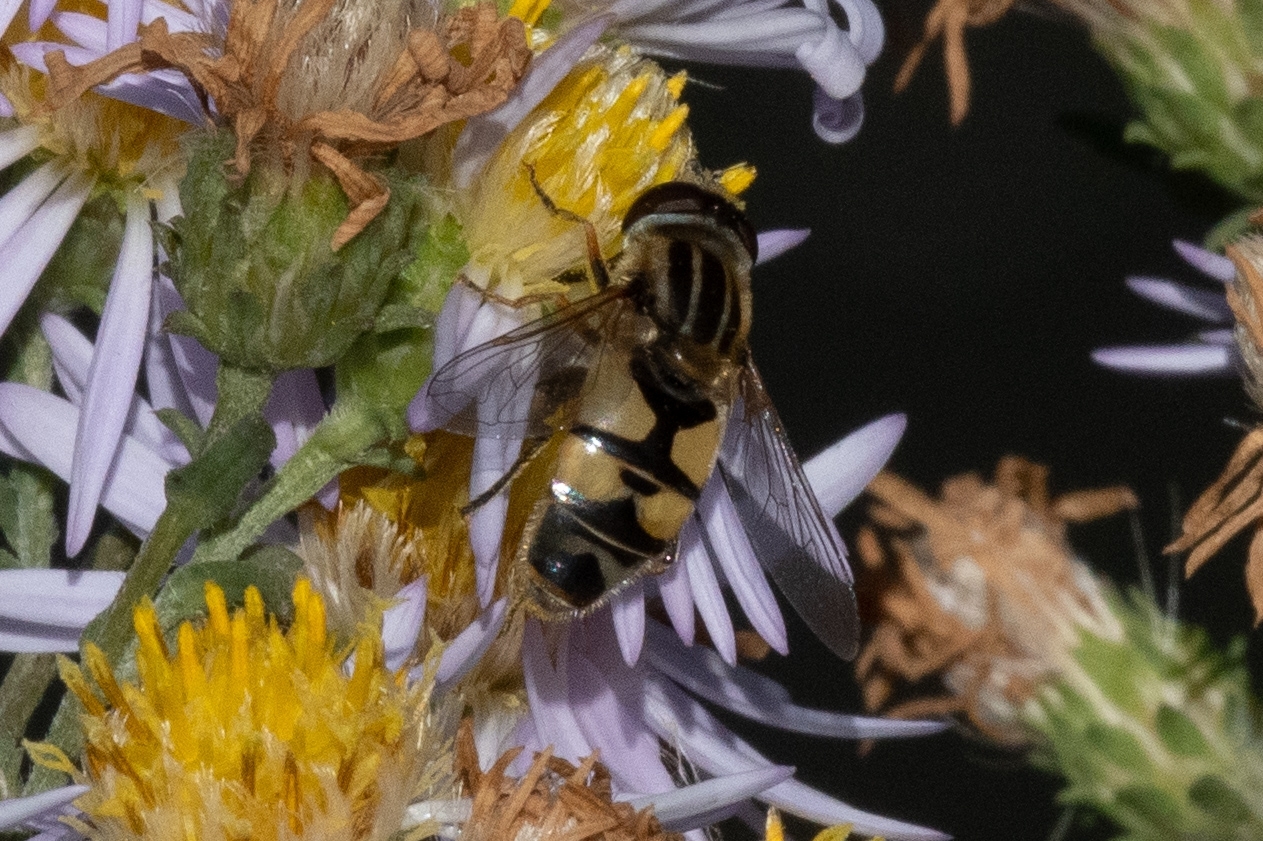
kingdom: Animalia
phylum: Arthropoda
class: Insecta
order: Diptera
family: Syrphidae
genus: Helophilus
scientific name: Helophilus latifrons
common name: Broad-headed marsh fly
